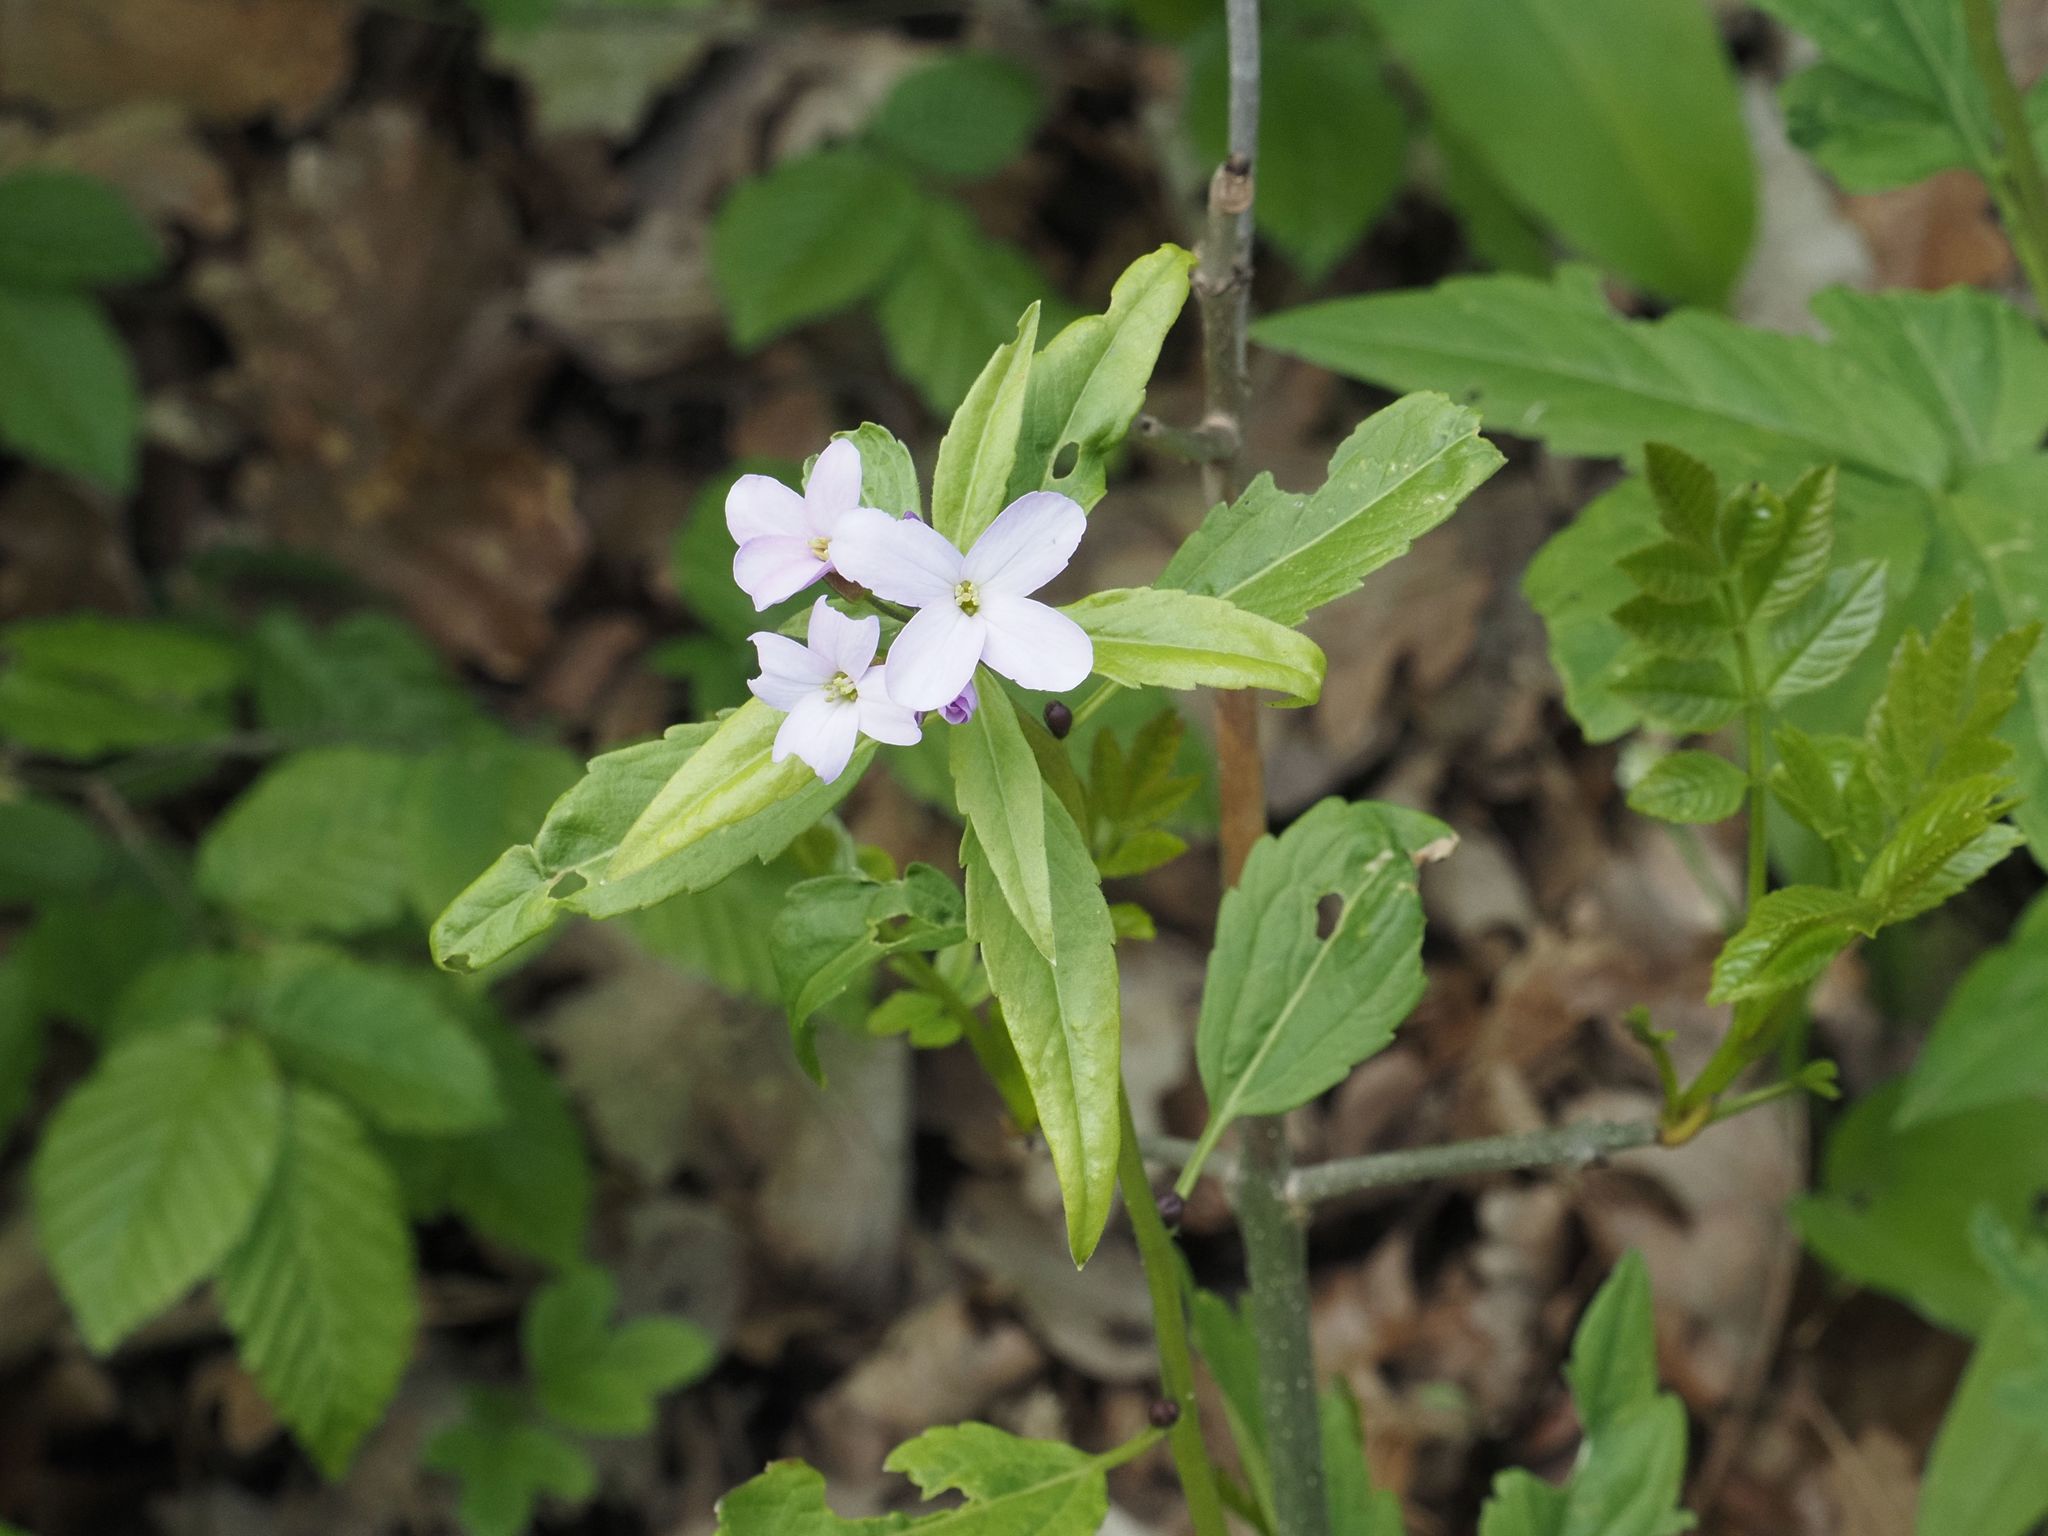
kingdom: Plantae
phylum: Tracheophyta
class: Magnoliopsida
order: Brassicales
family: Brassicaceae
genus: Cardamine
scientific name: Cardamine bulbifera
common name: Coralroot bittercress
